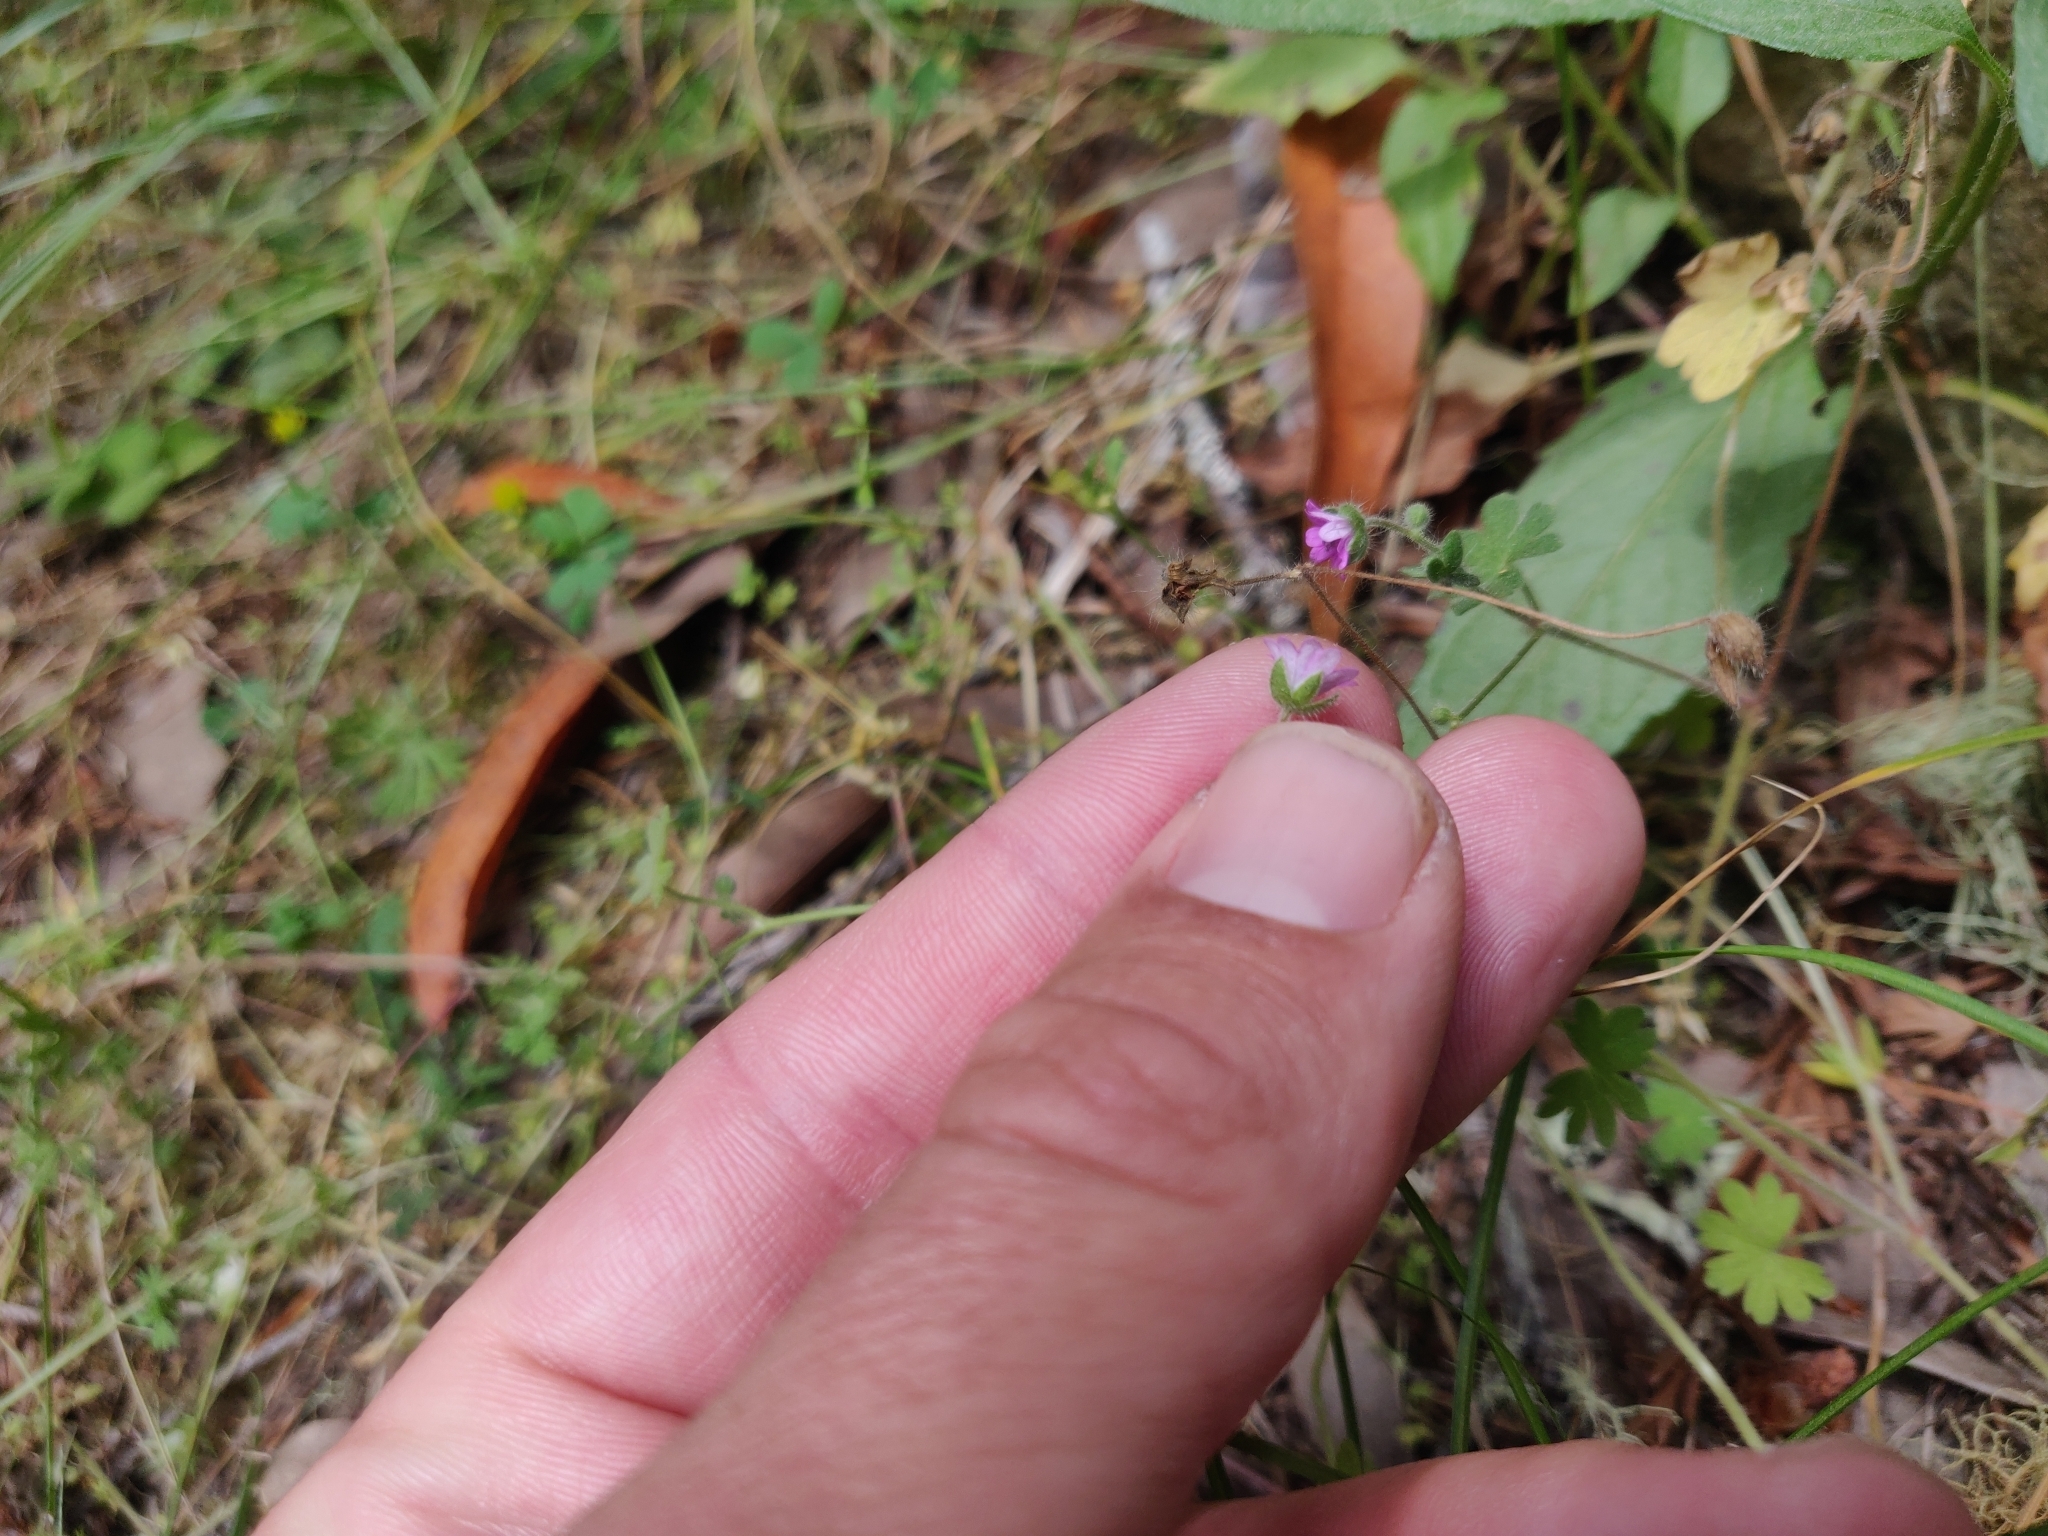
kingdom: Plantae
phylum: Tracheophyta
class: Magnoliopsida
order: Geraniales
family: Geraniaceae
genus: Geranium
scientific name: Geranium molle
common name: Dove's-foot crane's-bill
